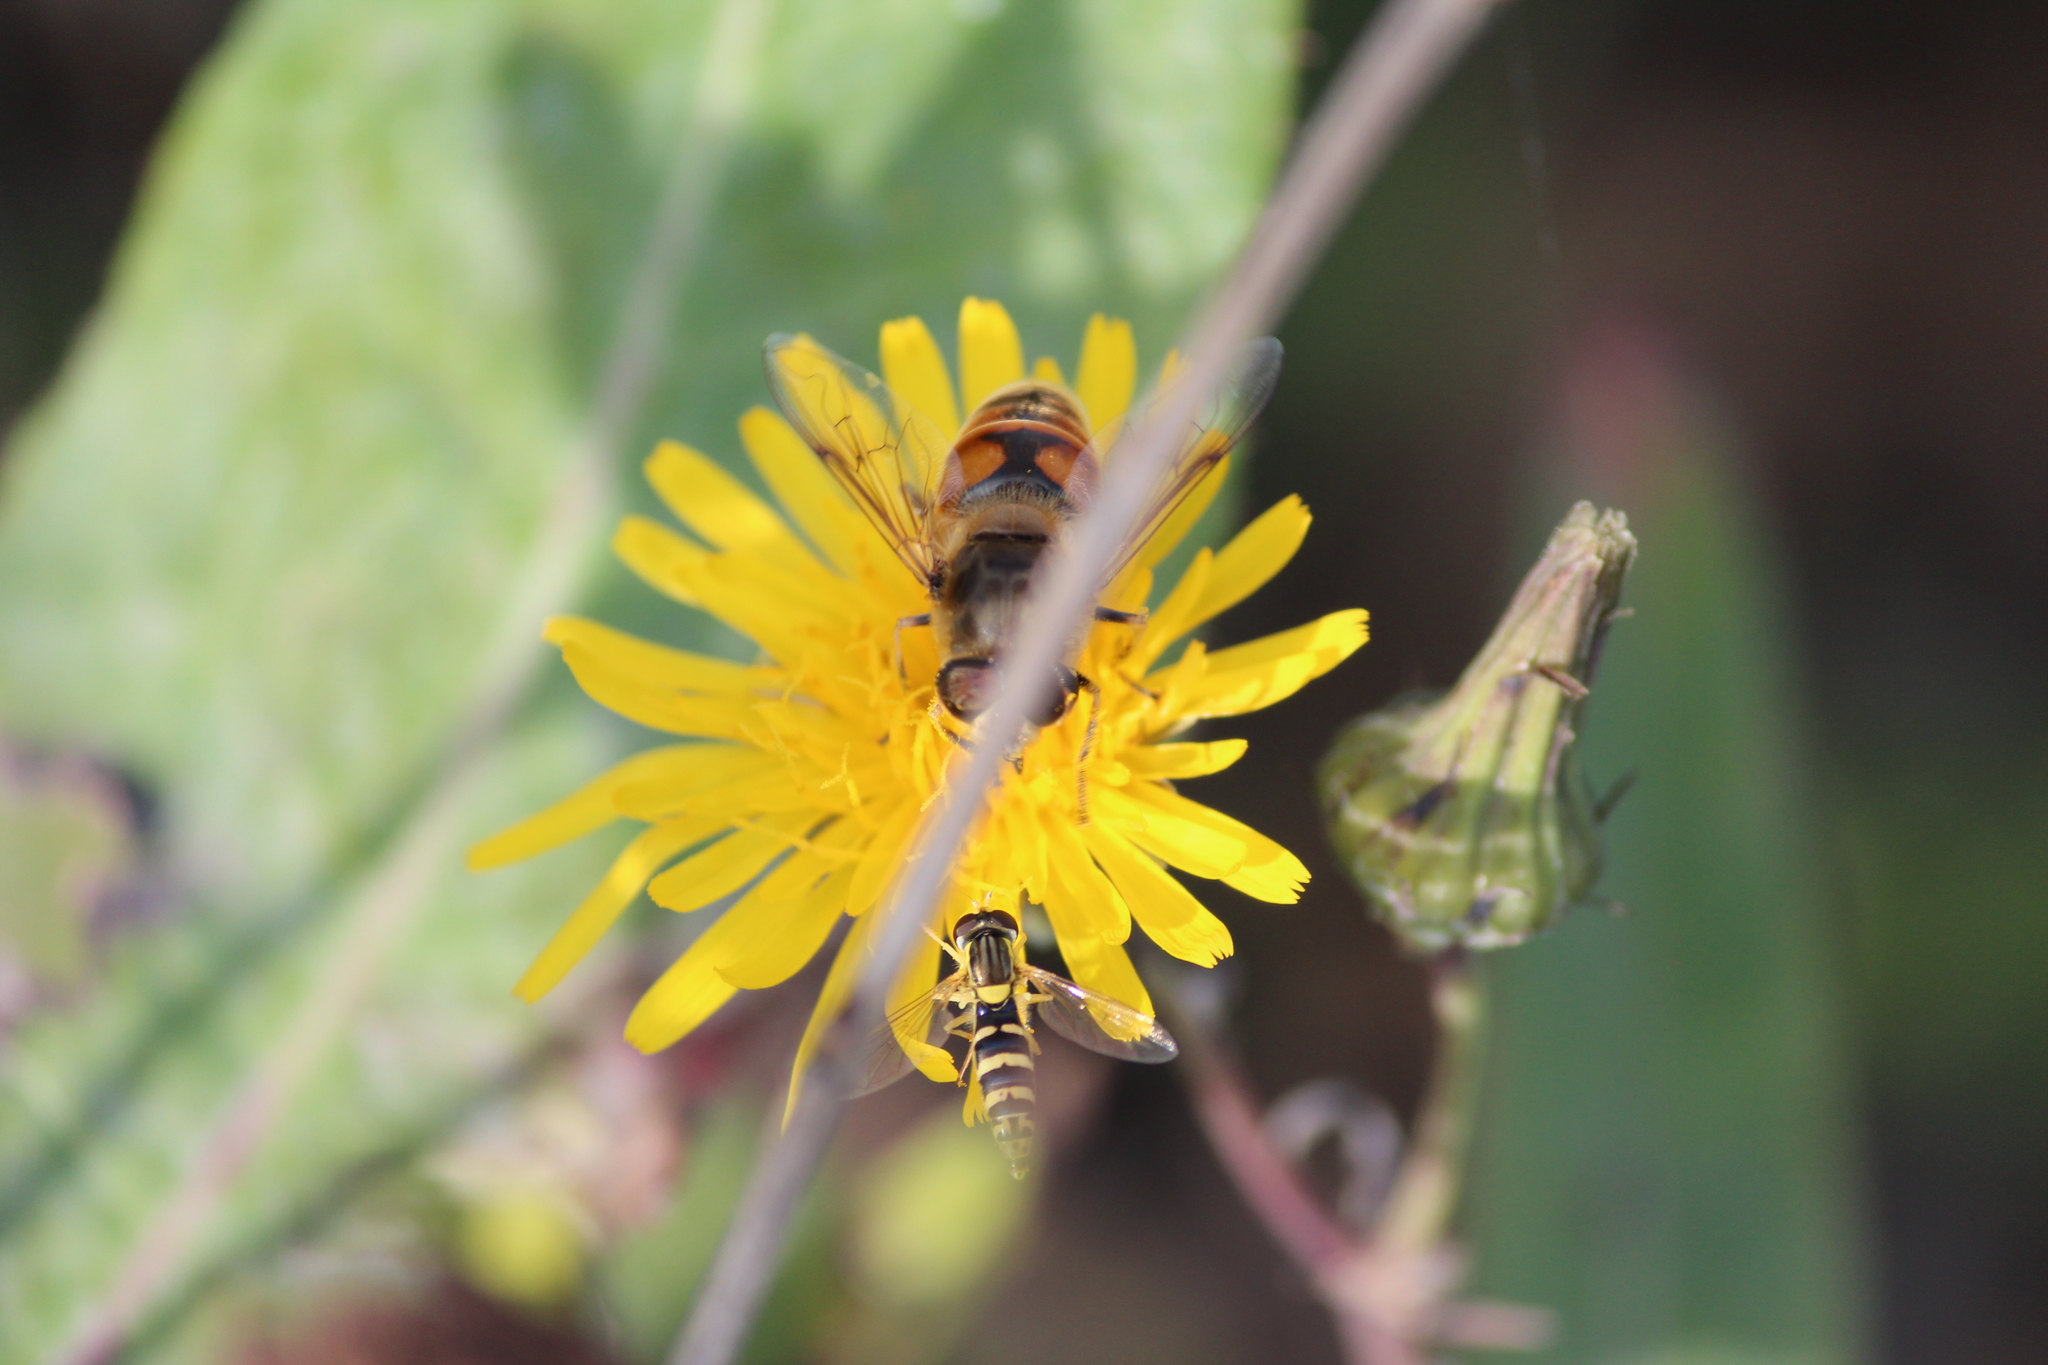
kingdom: Animalia
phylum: Arthropoda
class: Insecta
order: Diptera
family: Syrphidae
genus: Sphaerophoria
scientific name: Sphaerophoria
